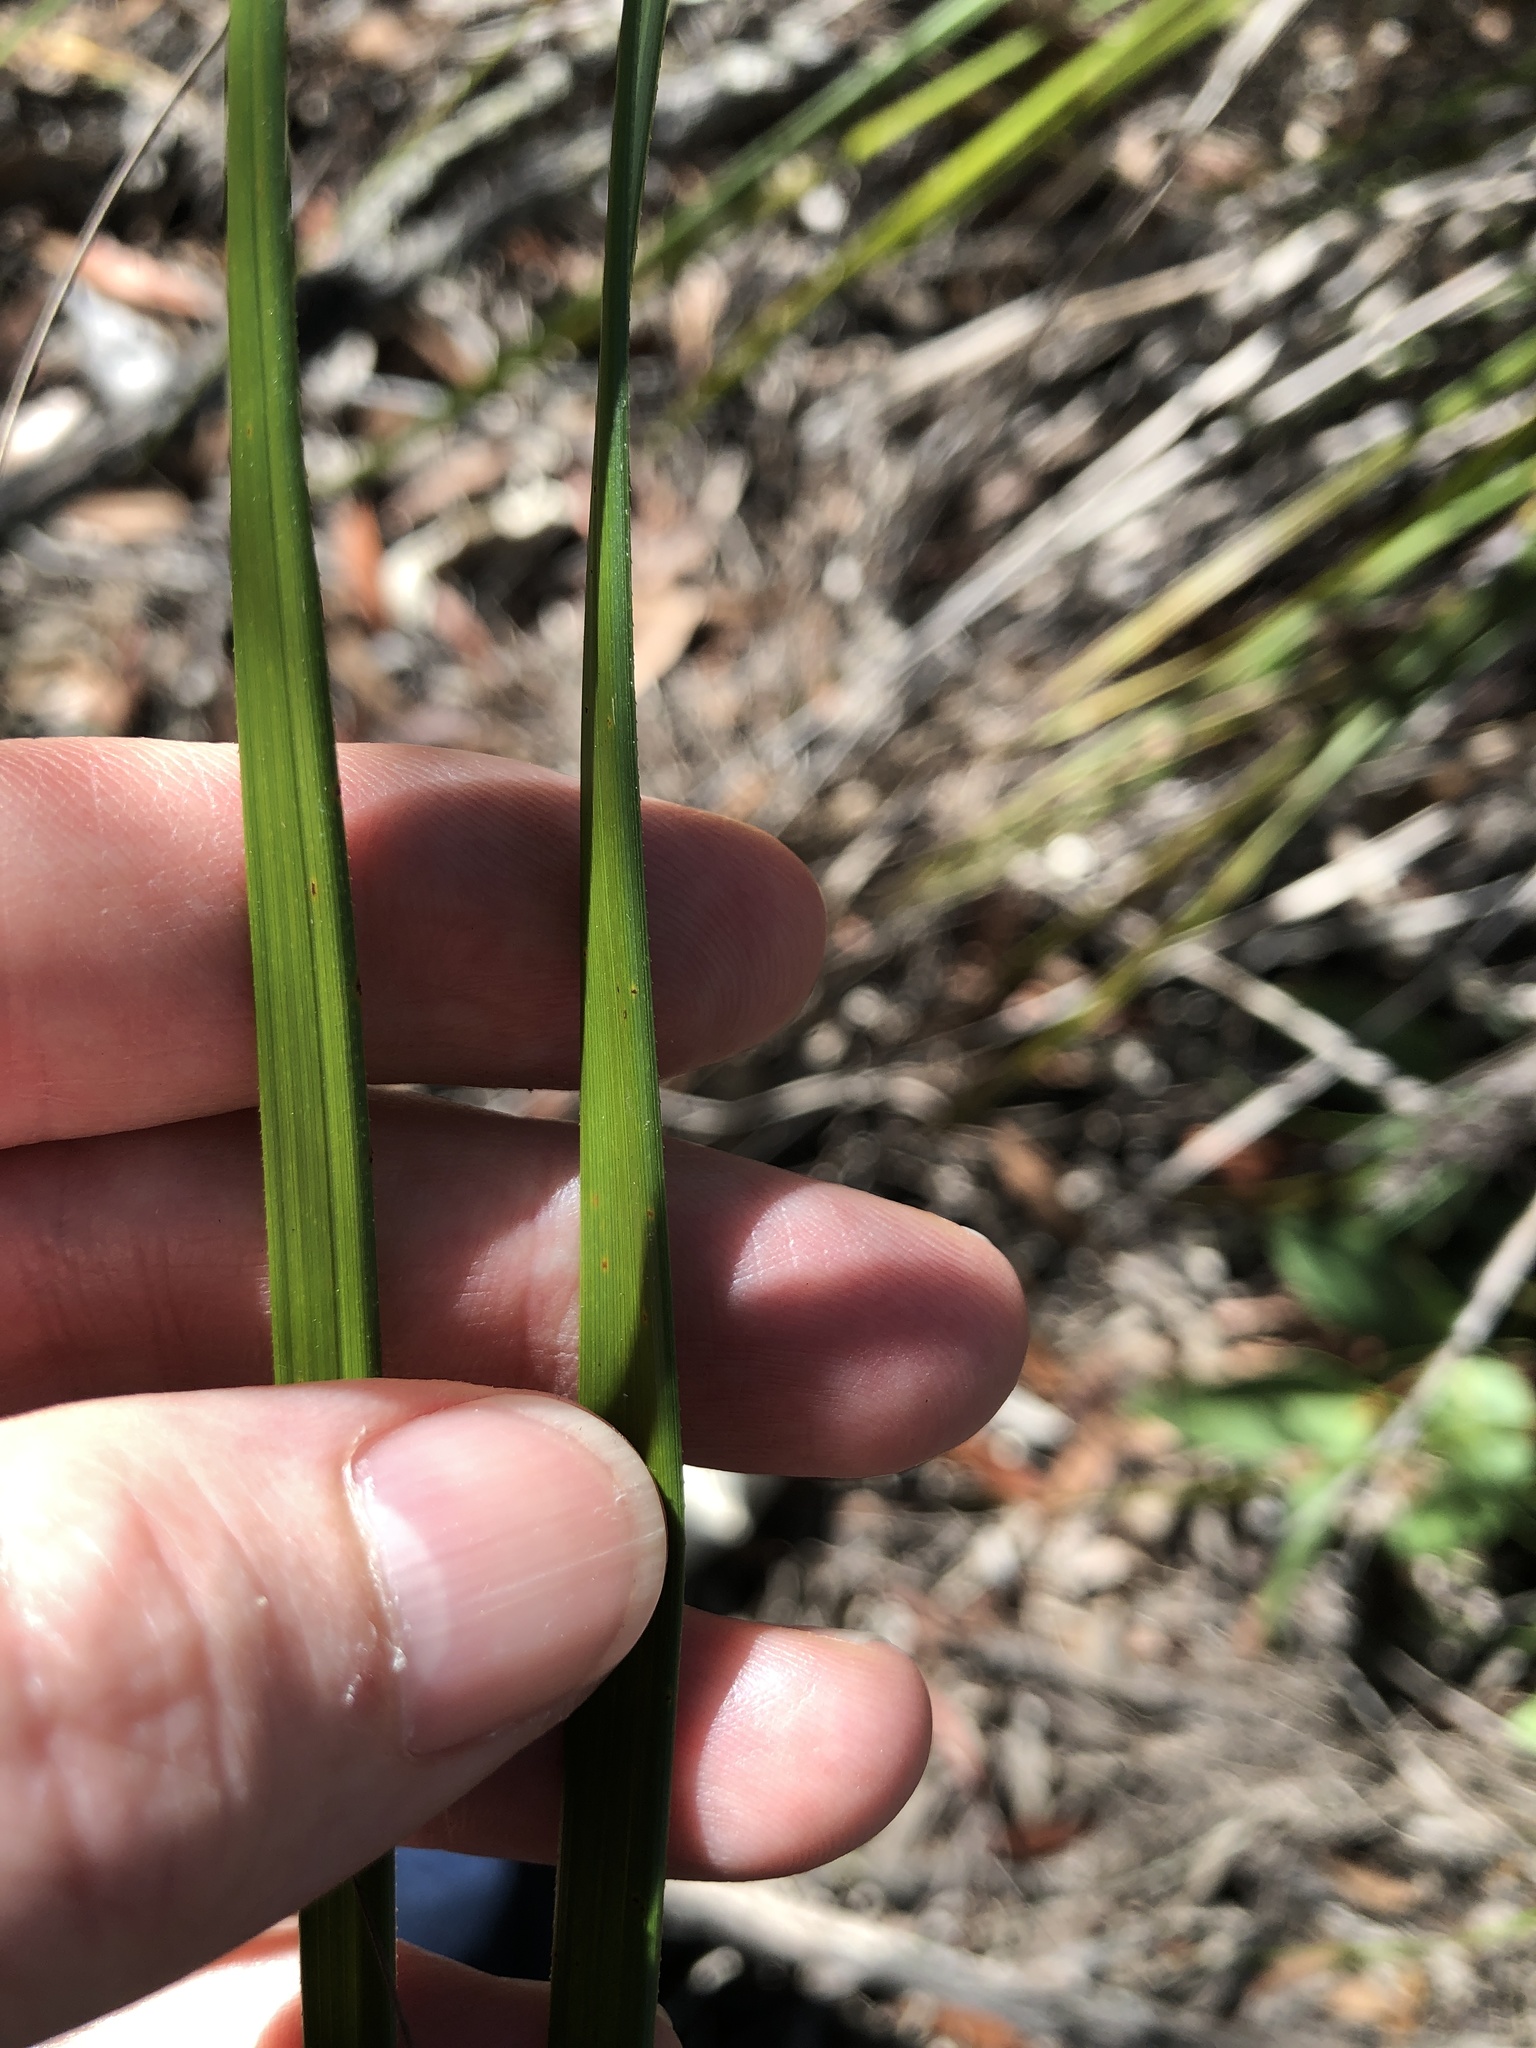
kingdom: Plantae
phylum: Tracheophyta
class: Liliopsida
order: Poales
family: Cyperaceae
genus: Gahnia
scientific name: Gahnia aspera
